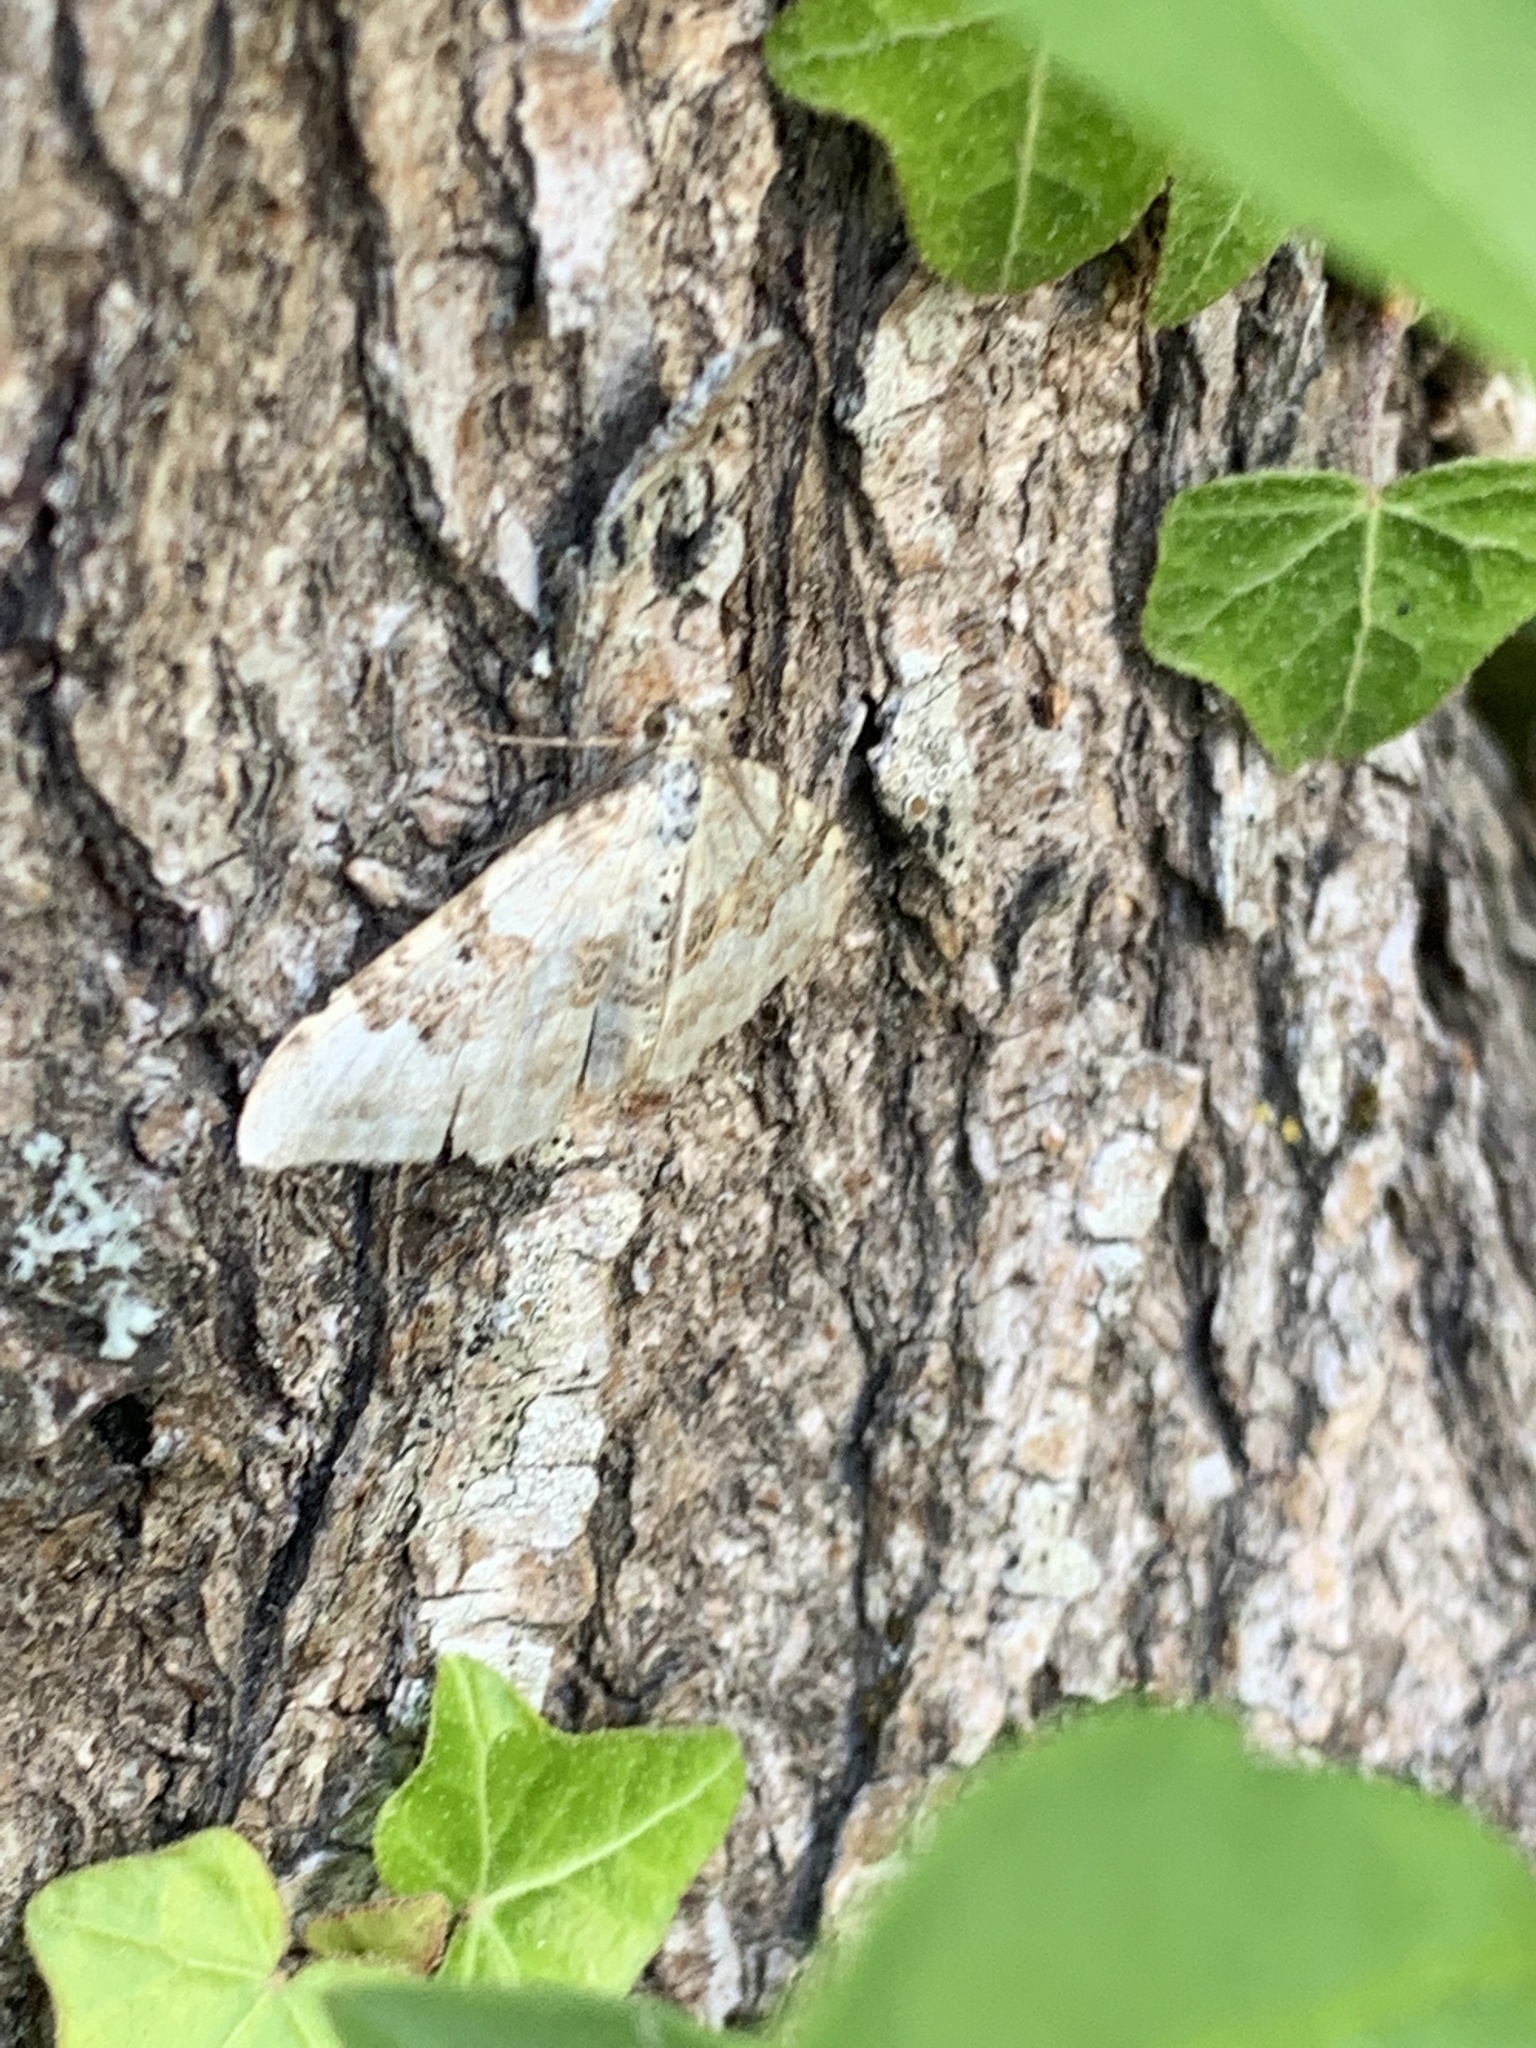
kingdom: Animalia
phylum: Arthropoda
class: Insecta
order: Lepidoptera
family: Geometridae
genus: Xanthorhoe
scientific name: Xanthorhoe montanata
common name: Silver-ground carpet
